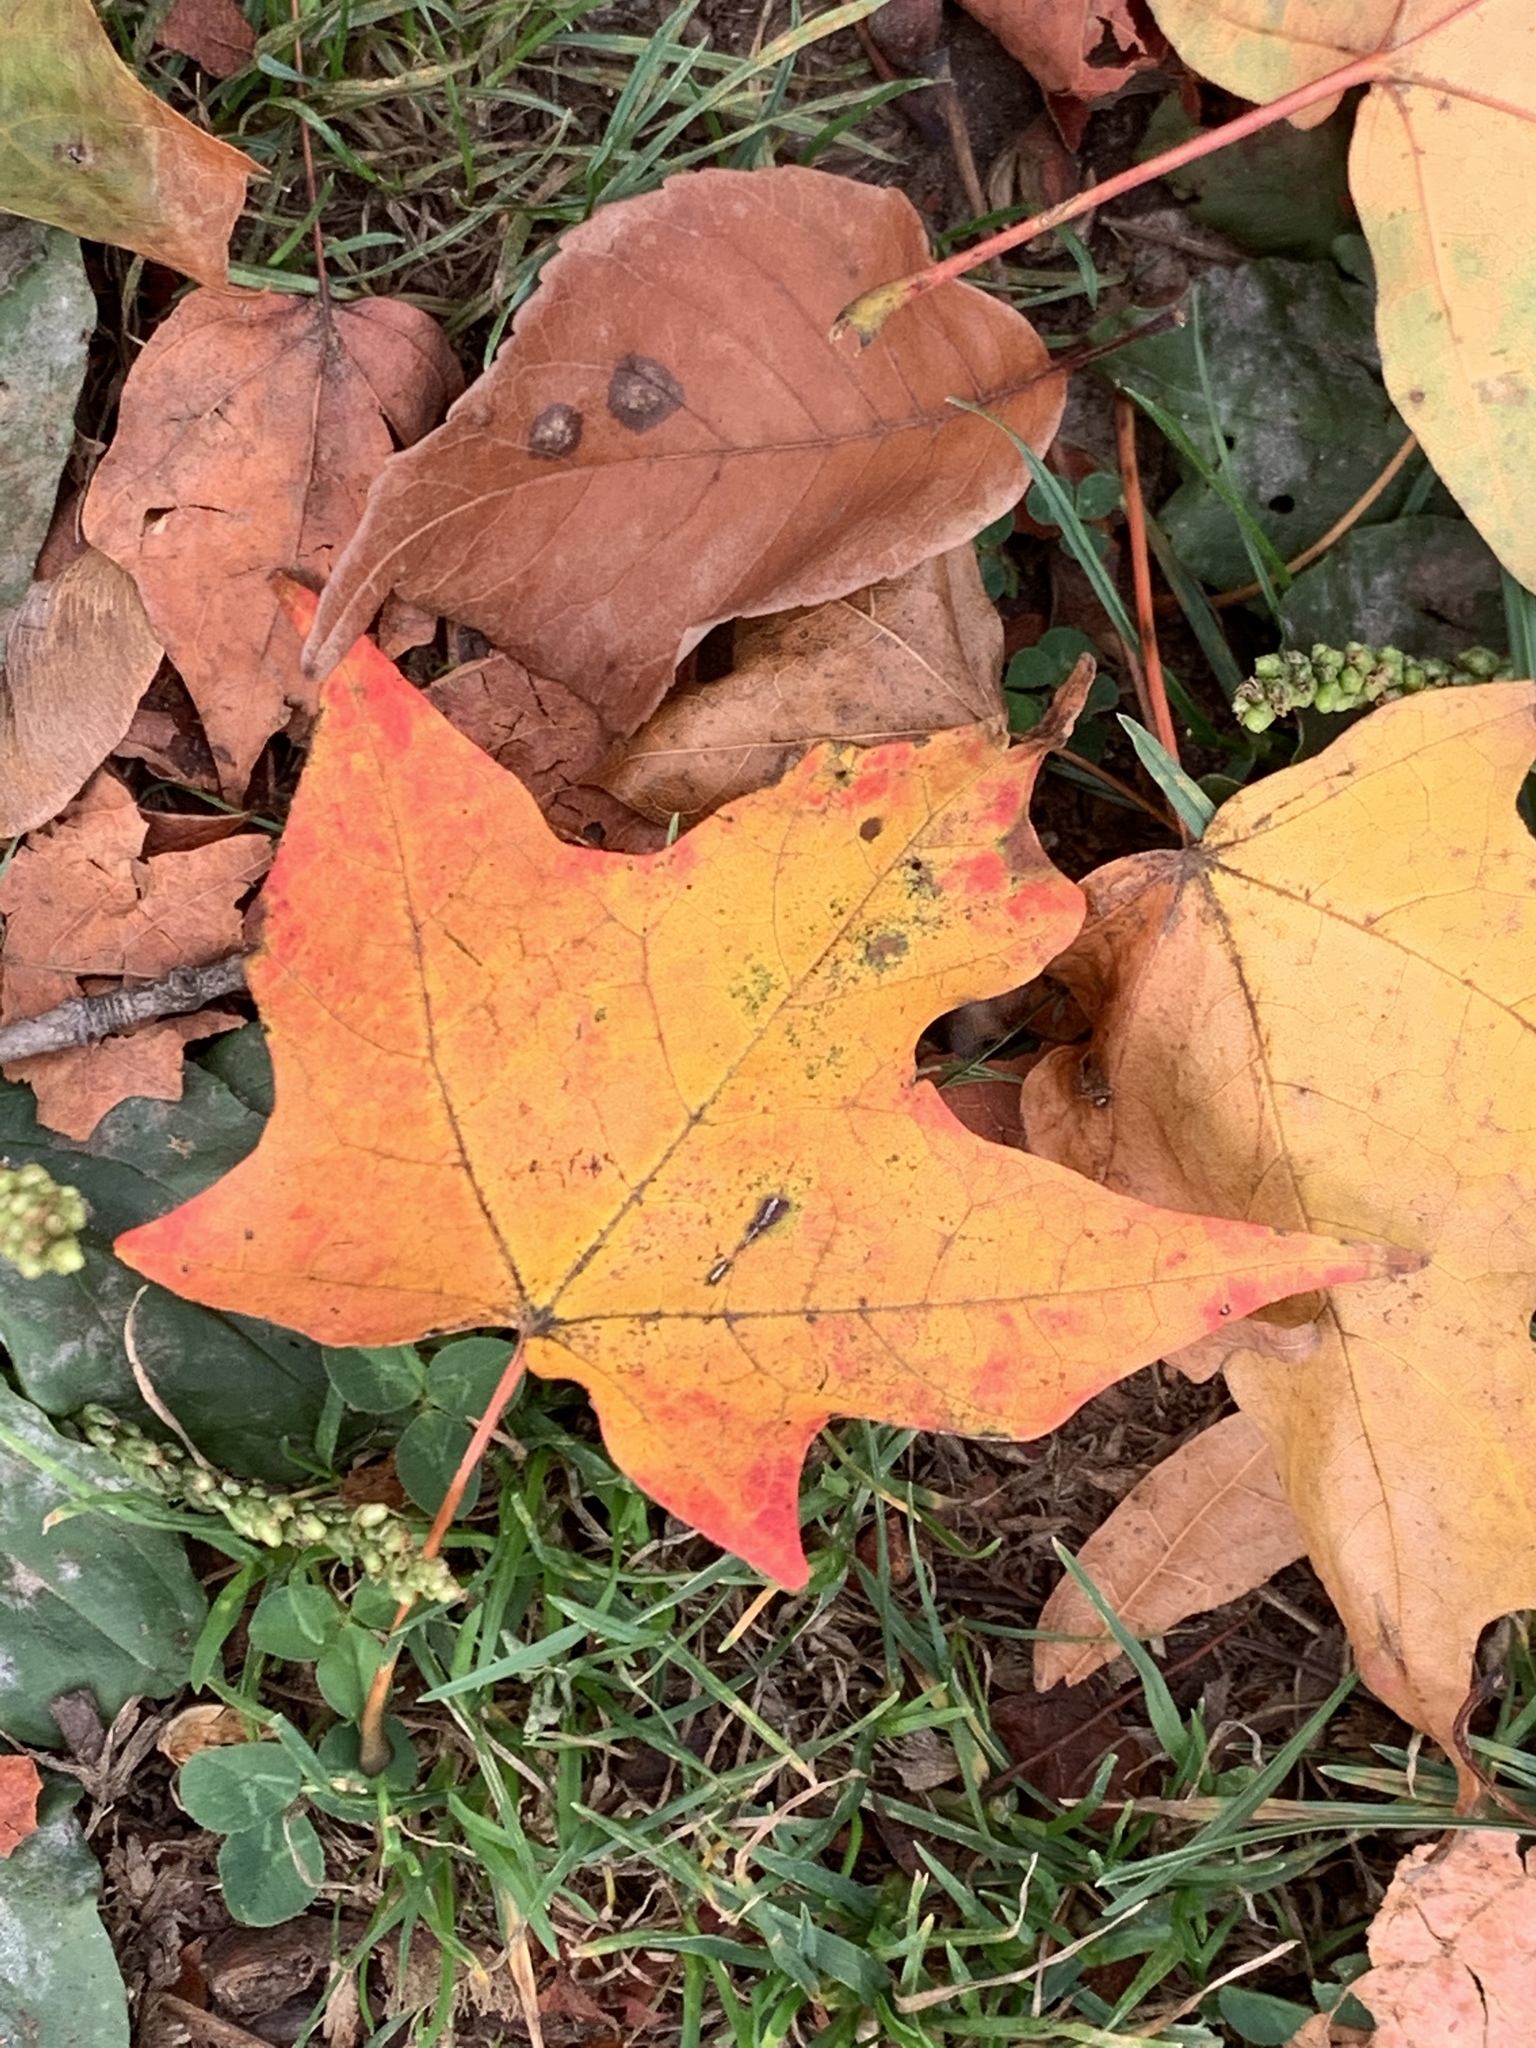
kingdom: Plantae
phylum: Tracheophyta
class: Magnoliopsida
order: Sapindales
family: Sapindaceae
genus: Acer
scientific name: Acer saccharum
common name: Sugar maple
